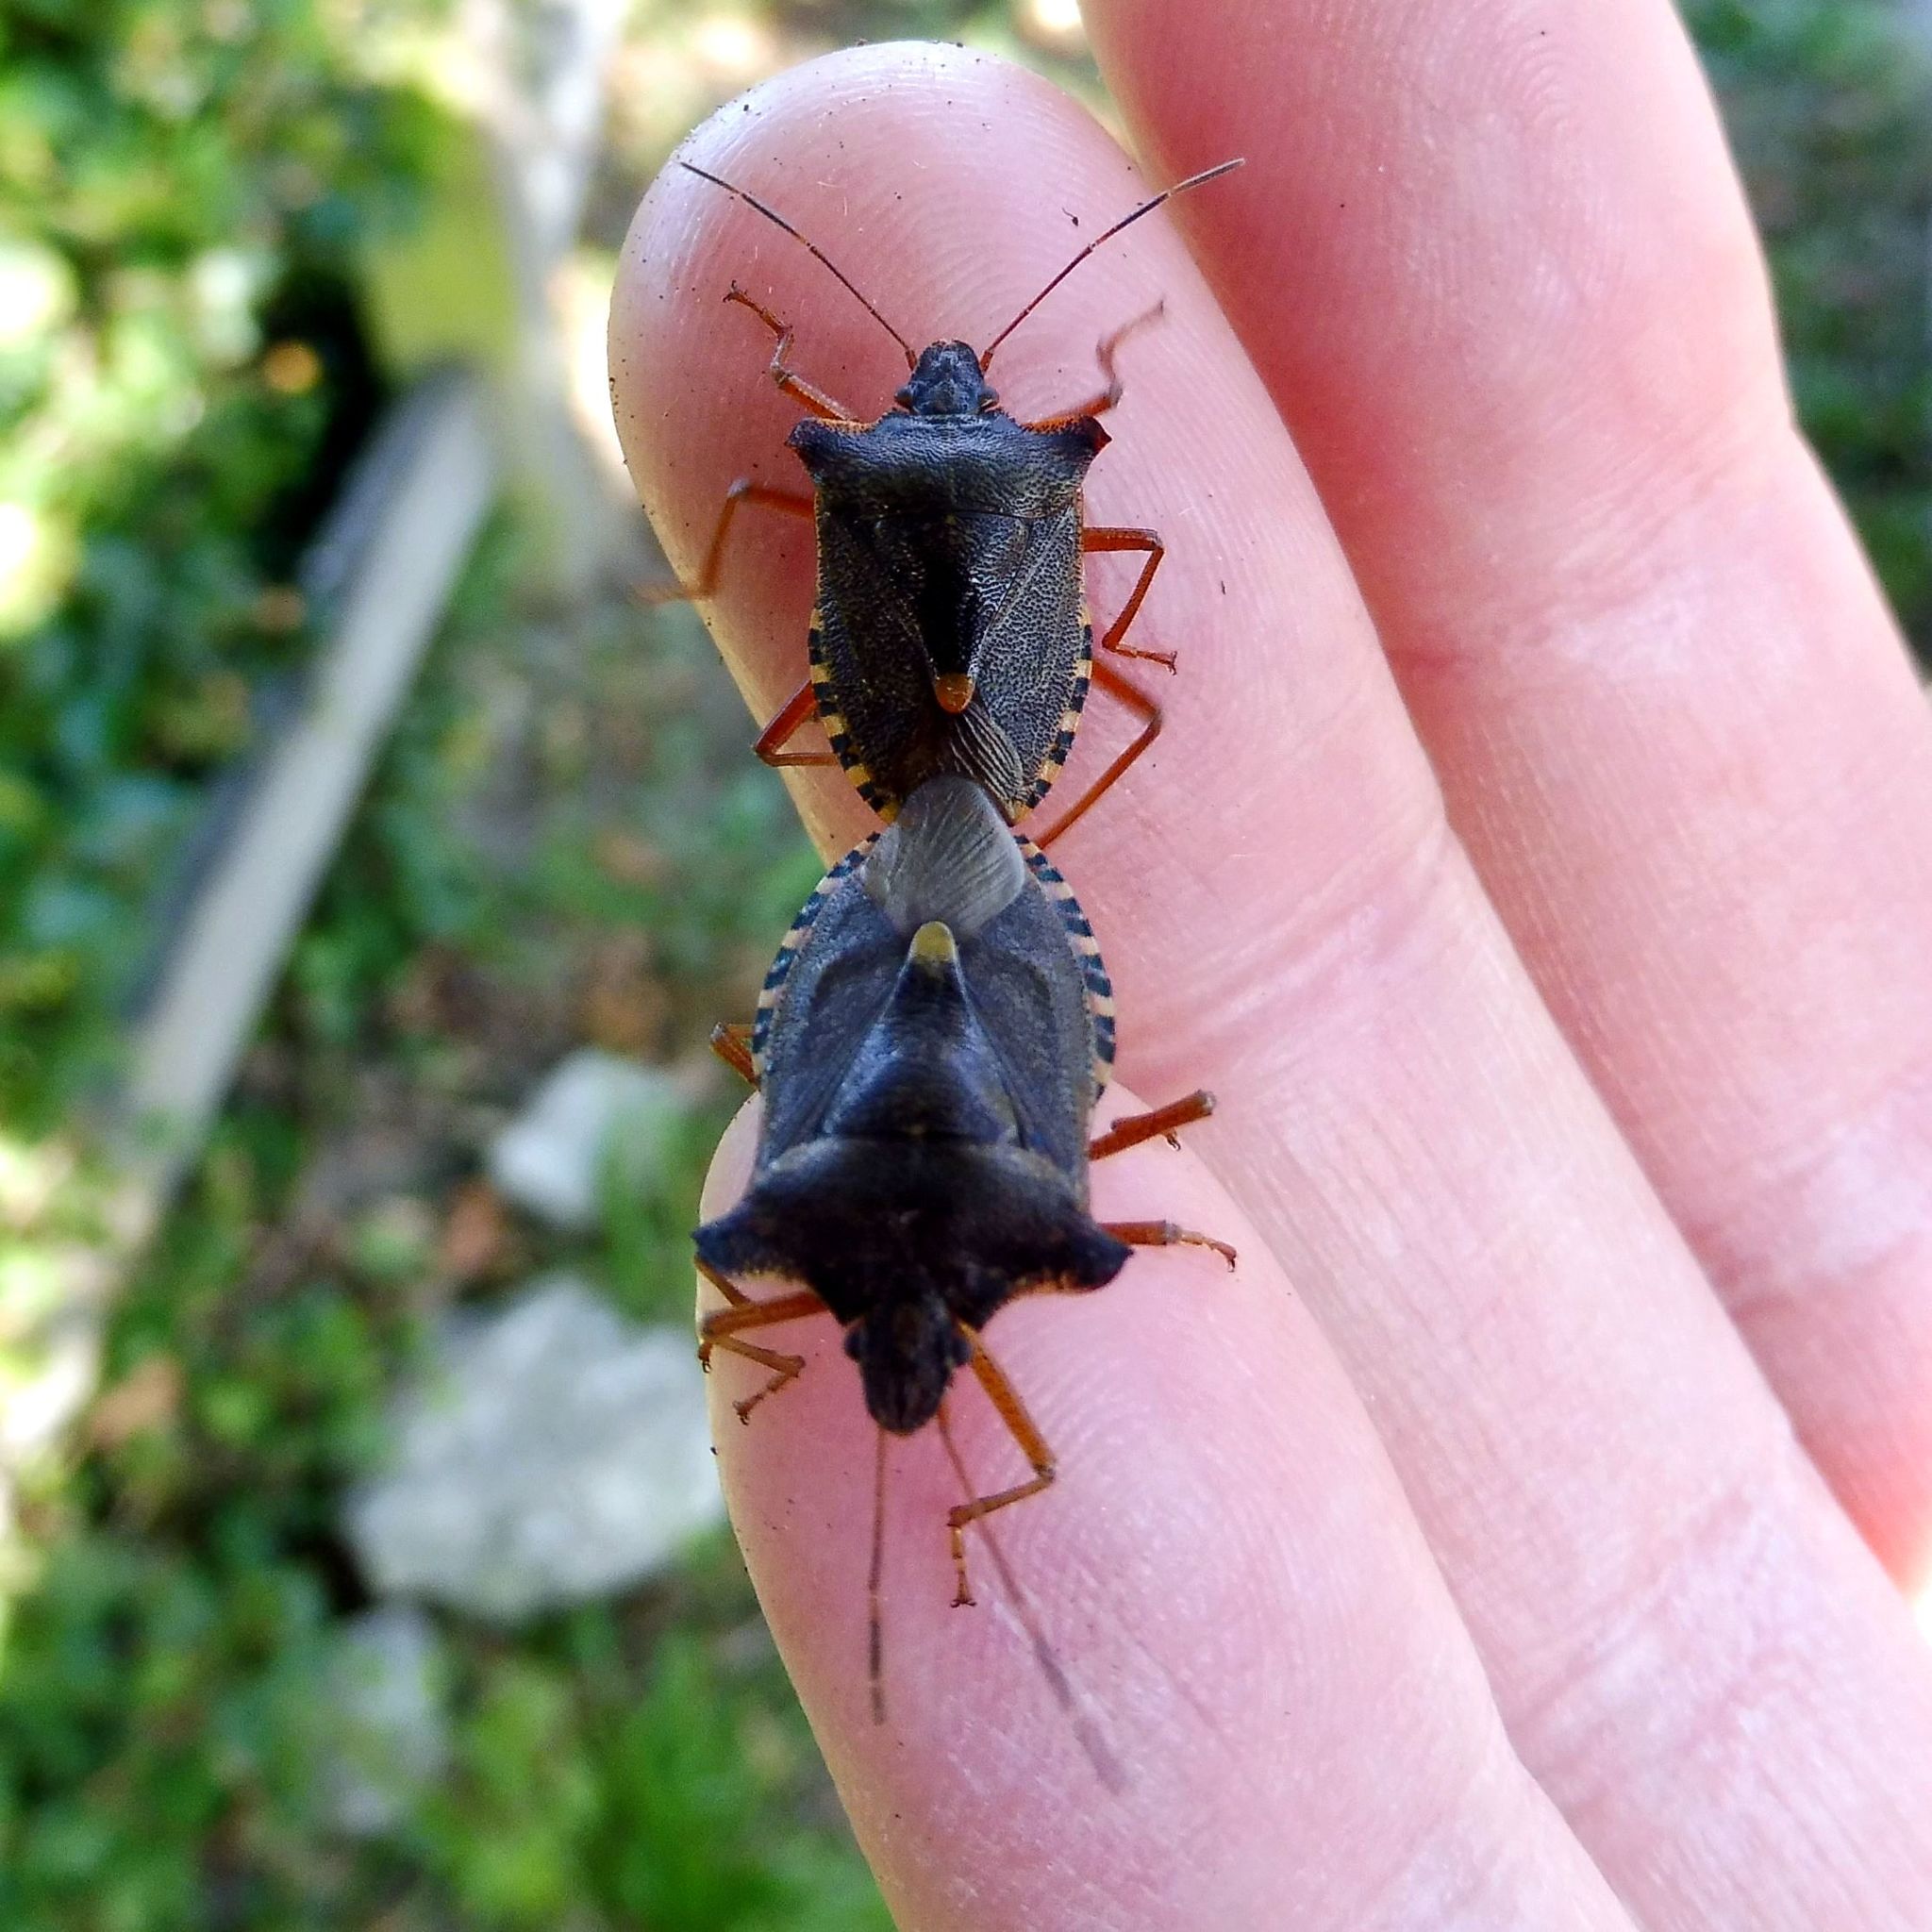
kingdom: Animalia
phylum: Arthropoda
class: Insecta
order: Hemiptera
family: Pentatomidae
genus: Pentatoma
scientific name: Pentatoma rufipes
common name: Forest bug
